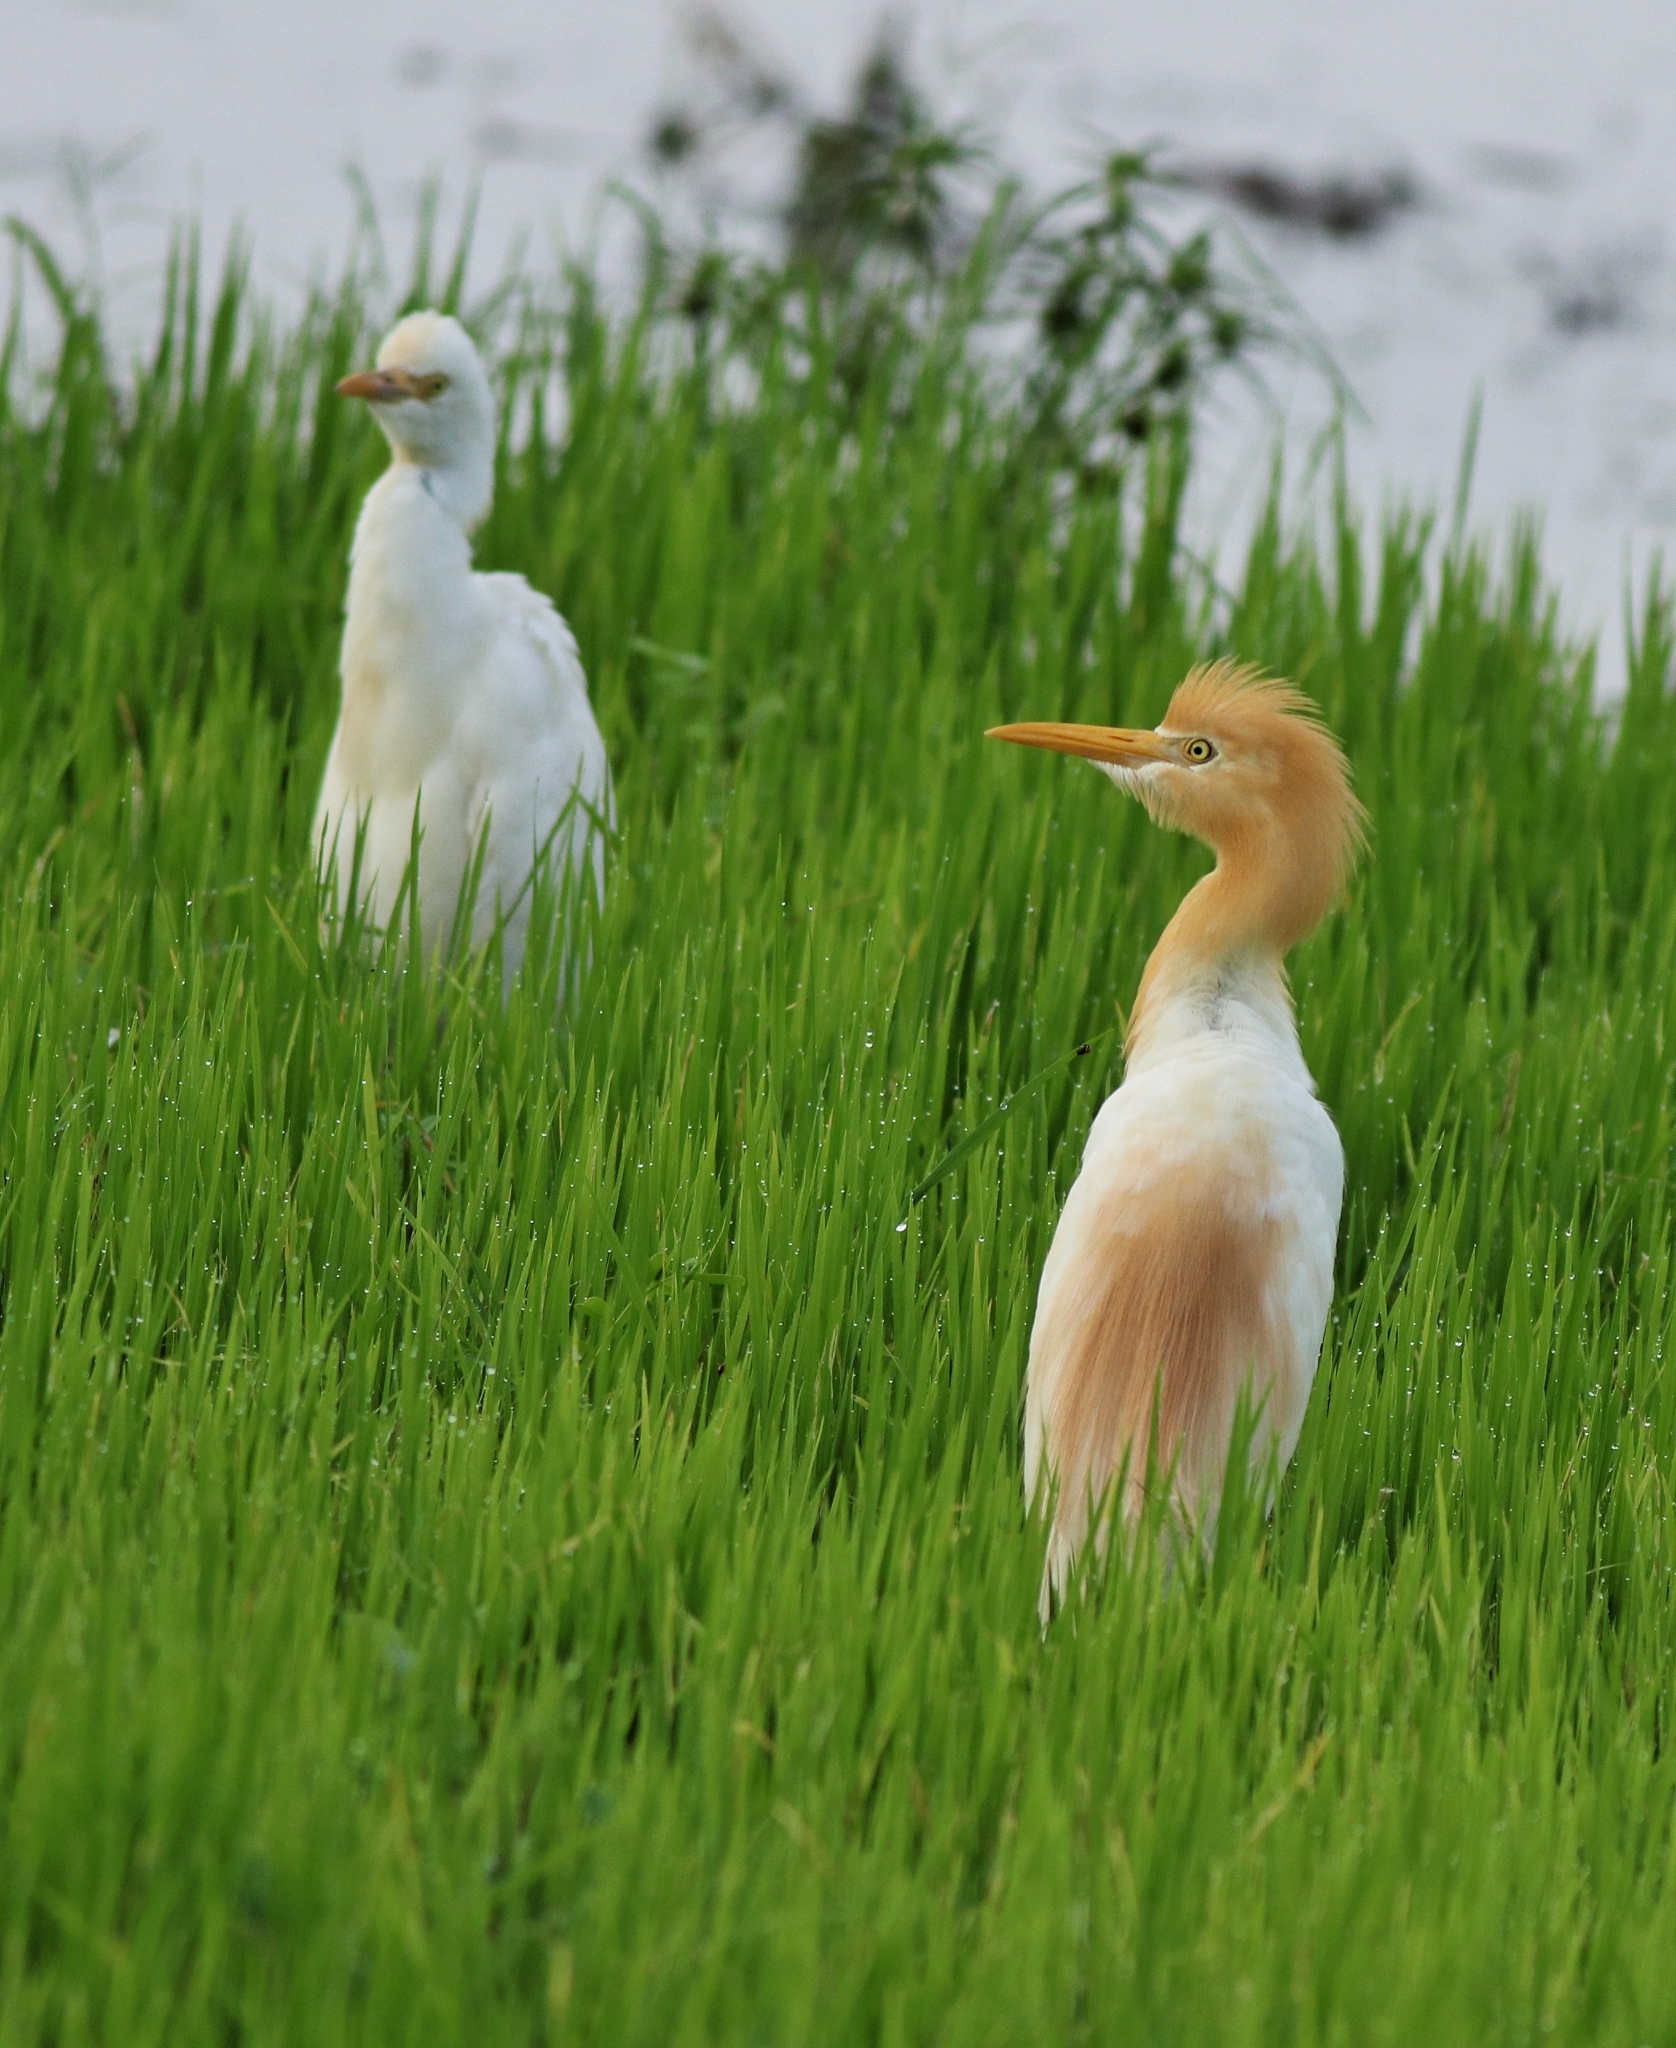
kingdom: Animalia
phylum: Chordata
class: Aves
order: Pelecaniformes
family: Ardeidae
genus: Bubulcus
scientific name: Bubulcus coromandus
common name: Eastern cattle egret
